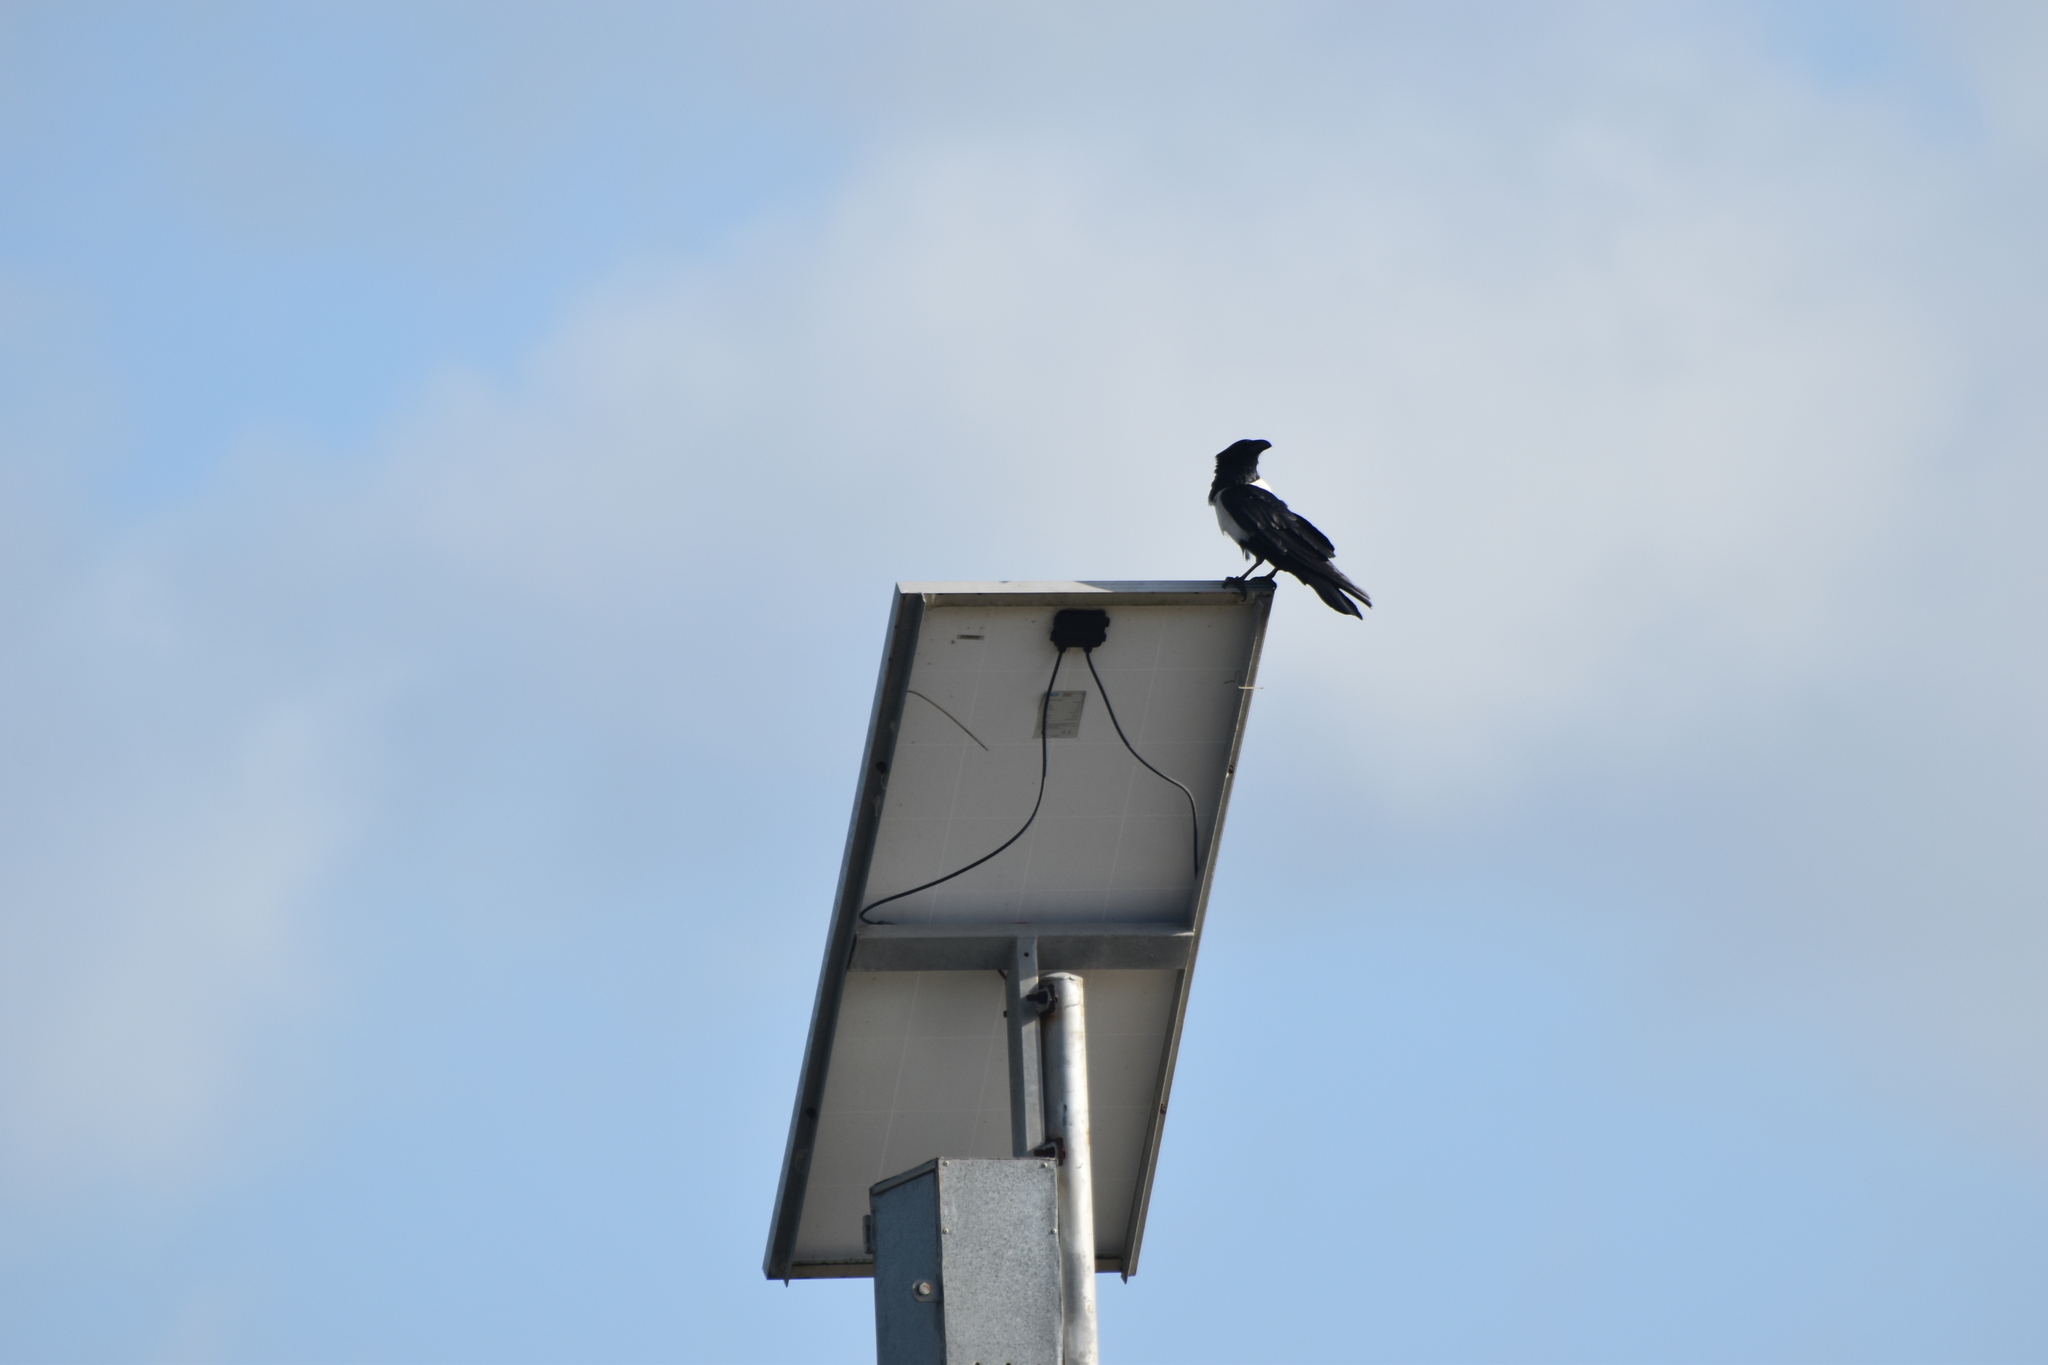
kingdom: Animalia
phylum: Chordata
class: Aves
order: Passeriformes
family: Corvidae
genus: Corvus
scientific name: Corvus albus
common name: Pied crow
